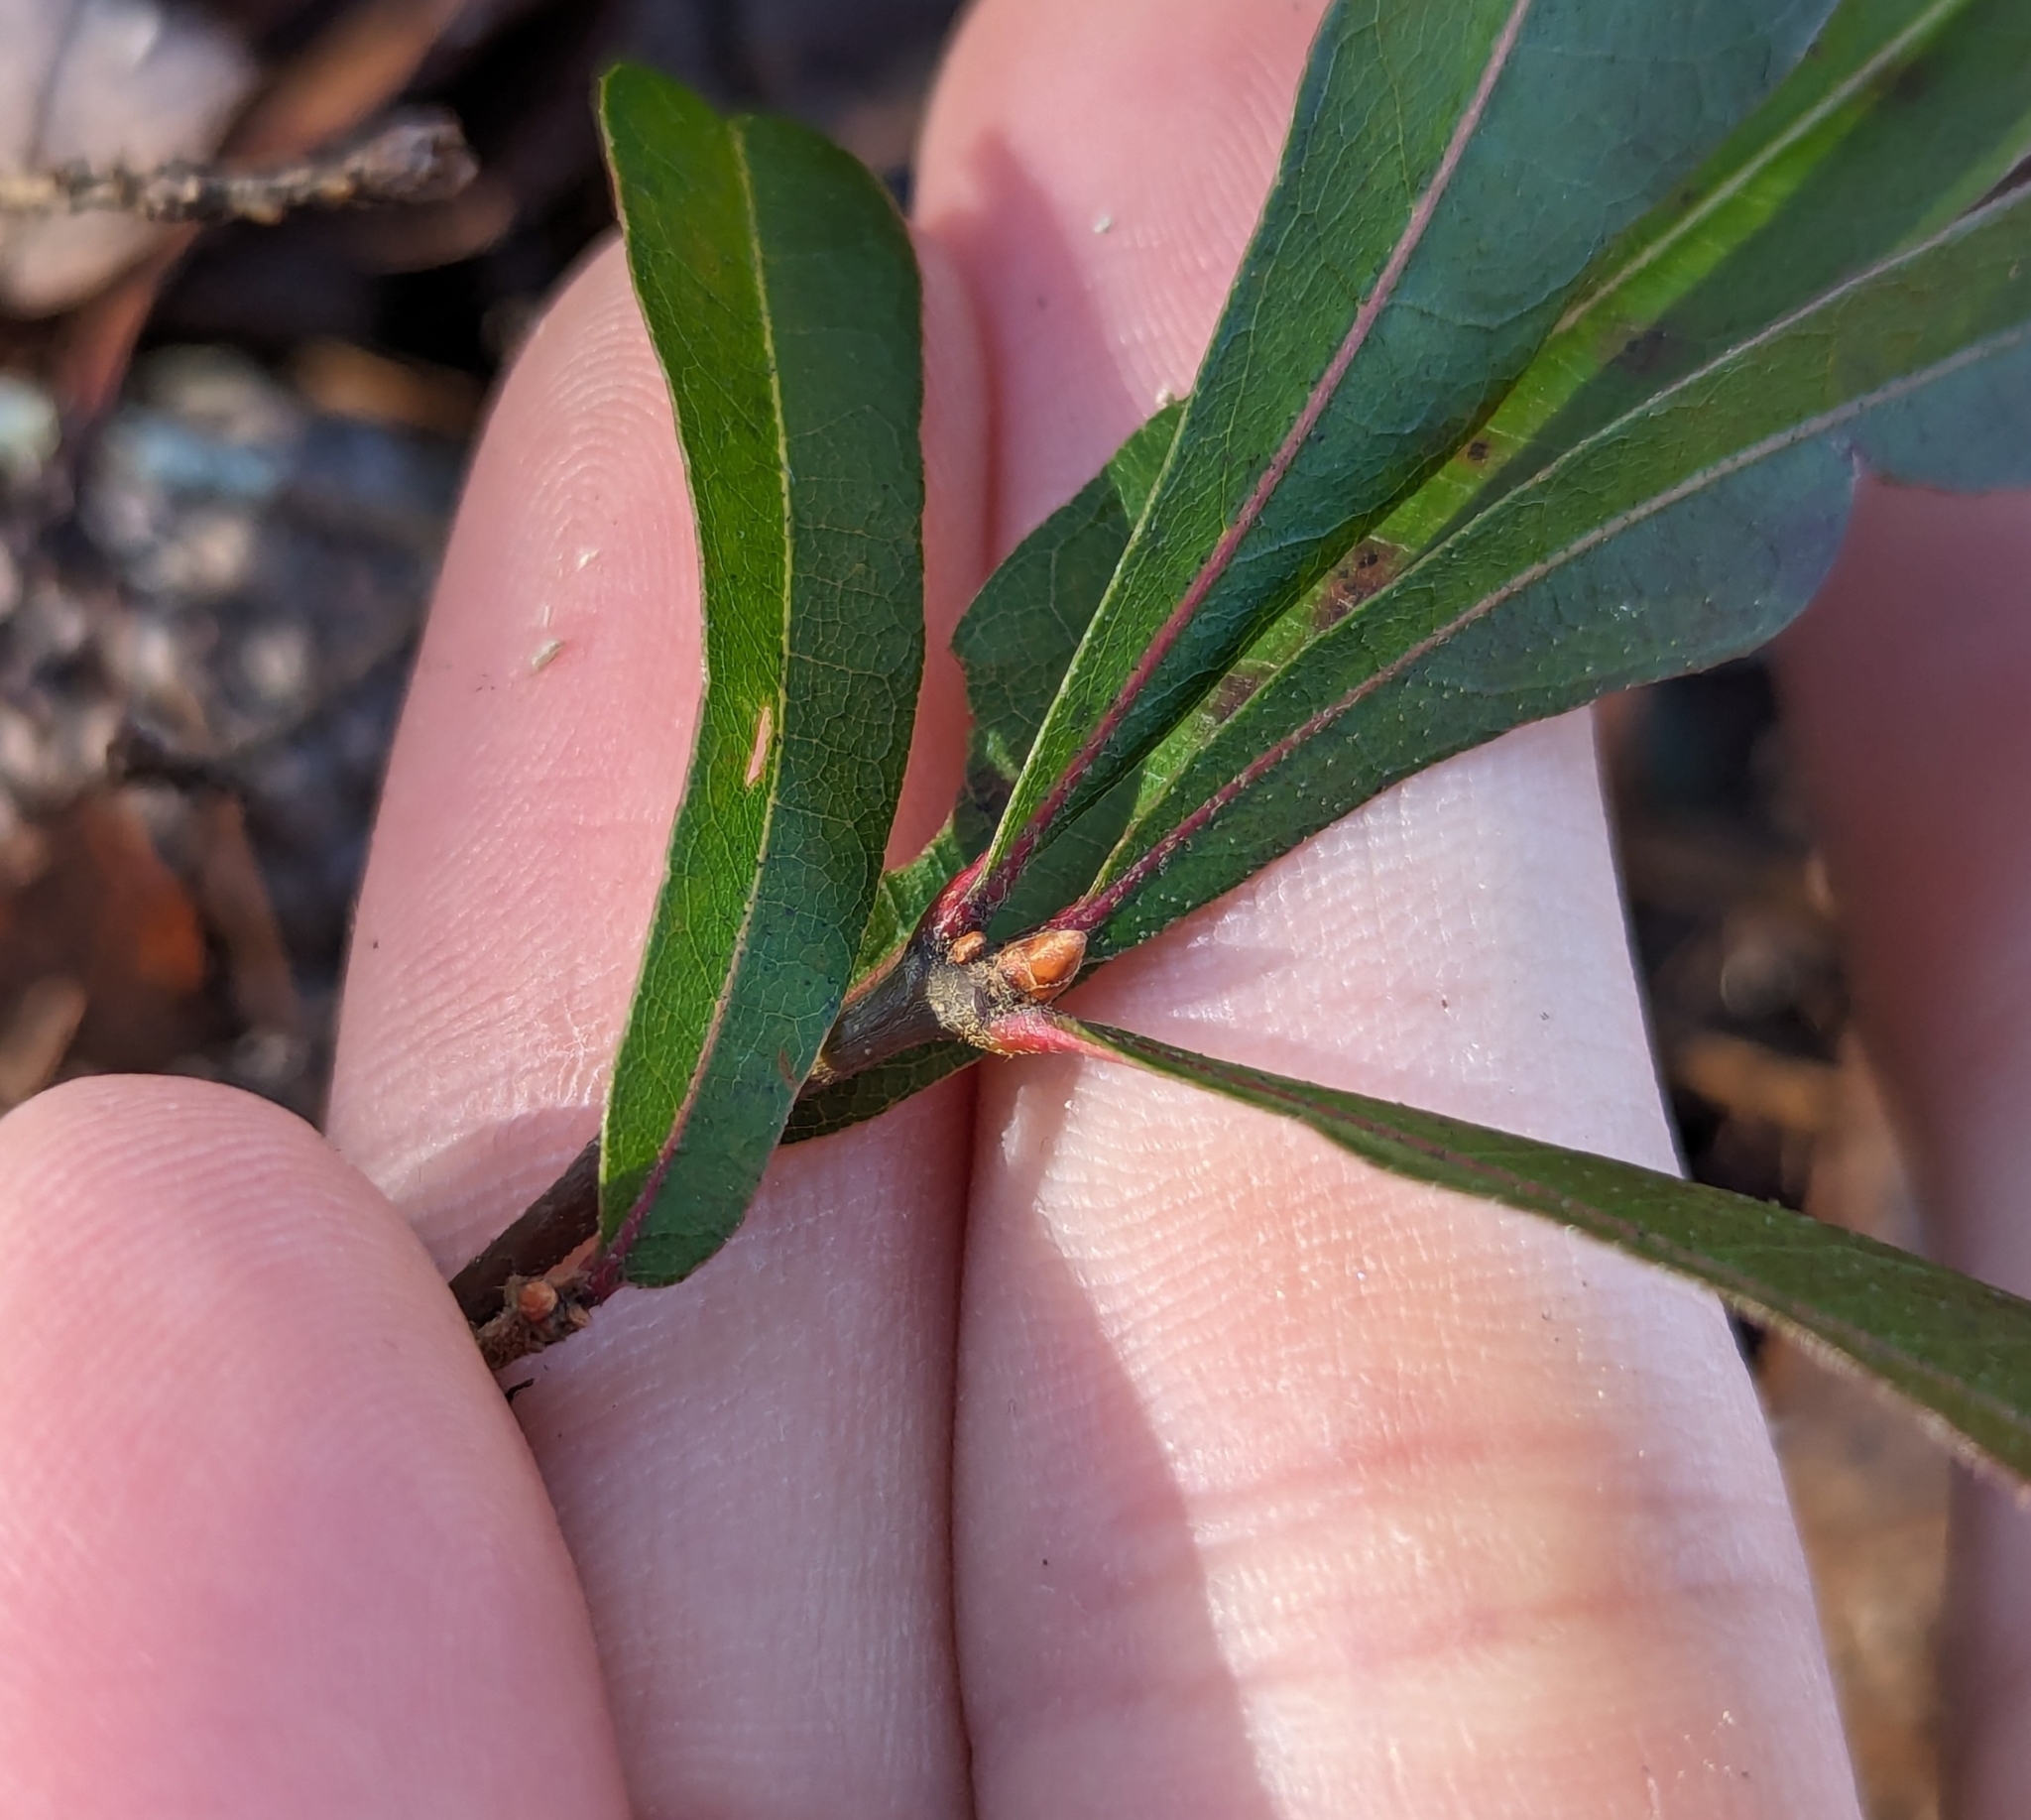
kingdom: Plantae
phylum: Tracheophyta
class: Magnoliopsida
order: Fagales
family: Fagaceae
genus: Quercus
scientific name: Quercus phellos
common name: Willow oak
